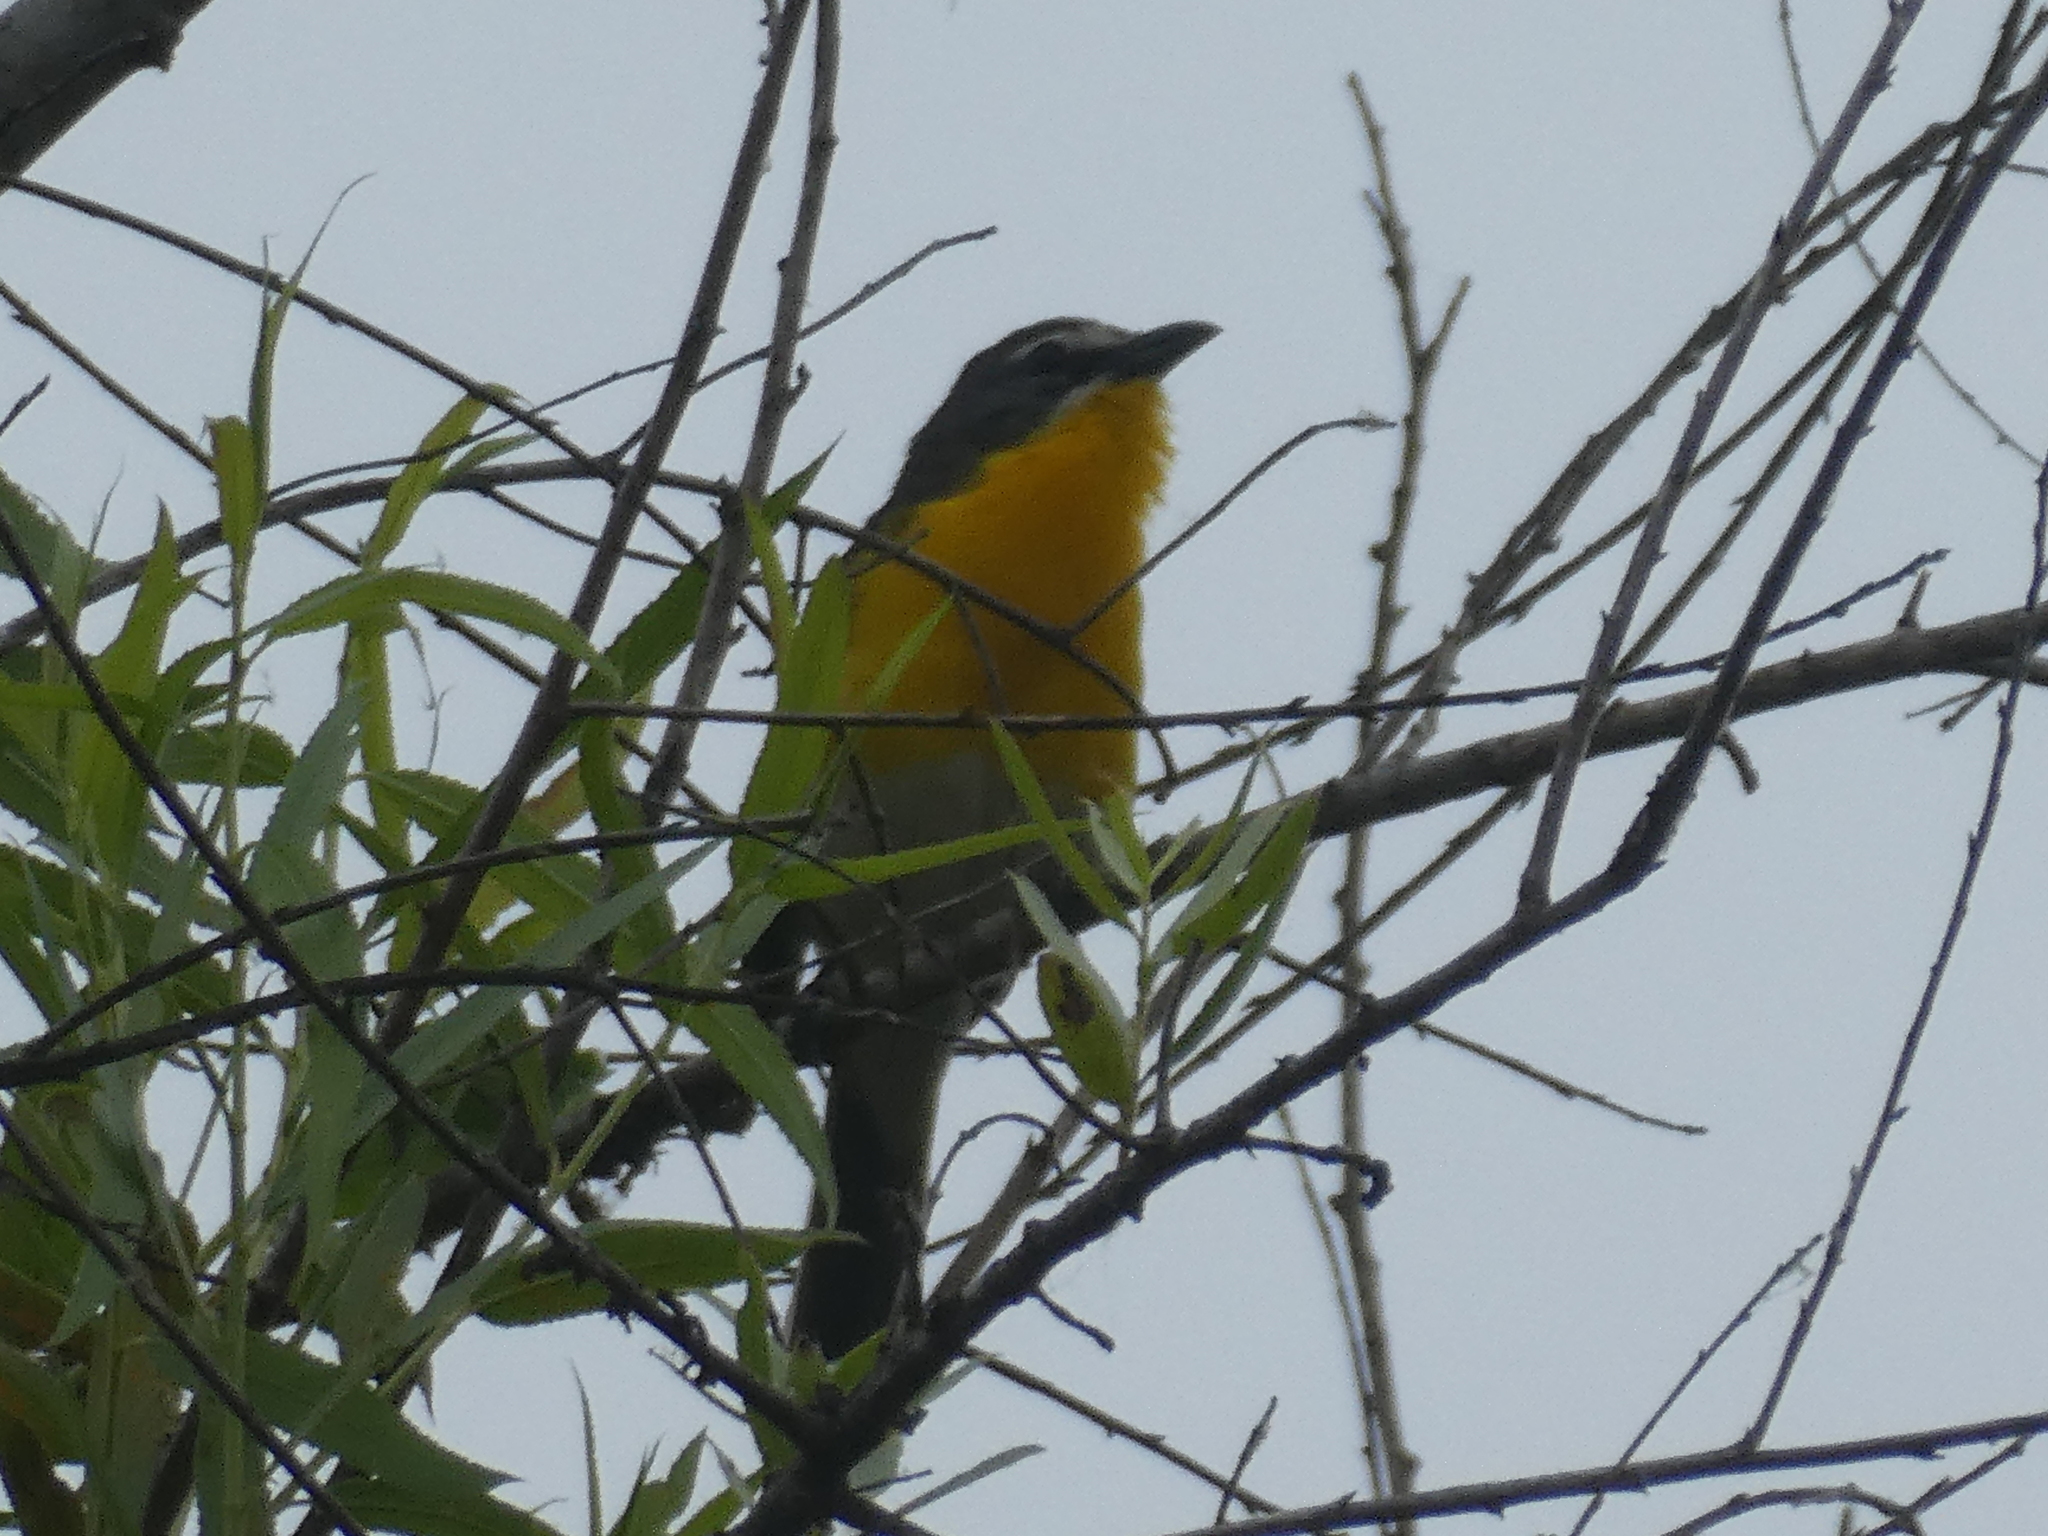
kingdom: Animalia
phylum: Chordata
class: Aves
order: Passeriformes
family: Parulidae
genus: Icteria
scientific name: Icteria virens
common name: Yellow-breasted chat
